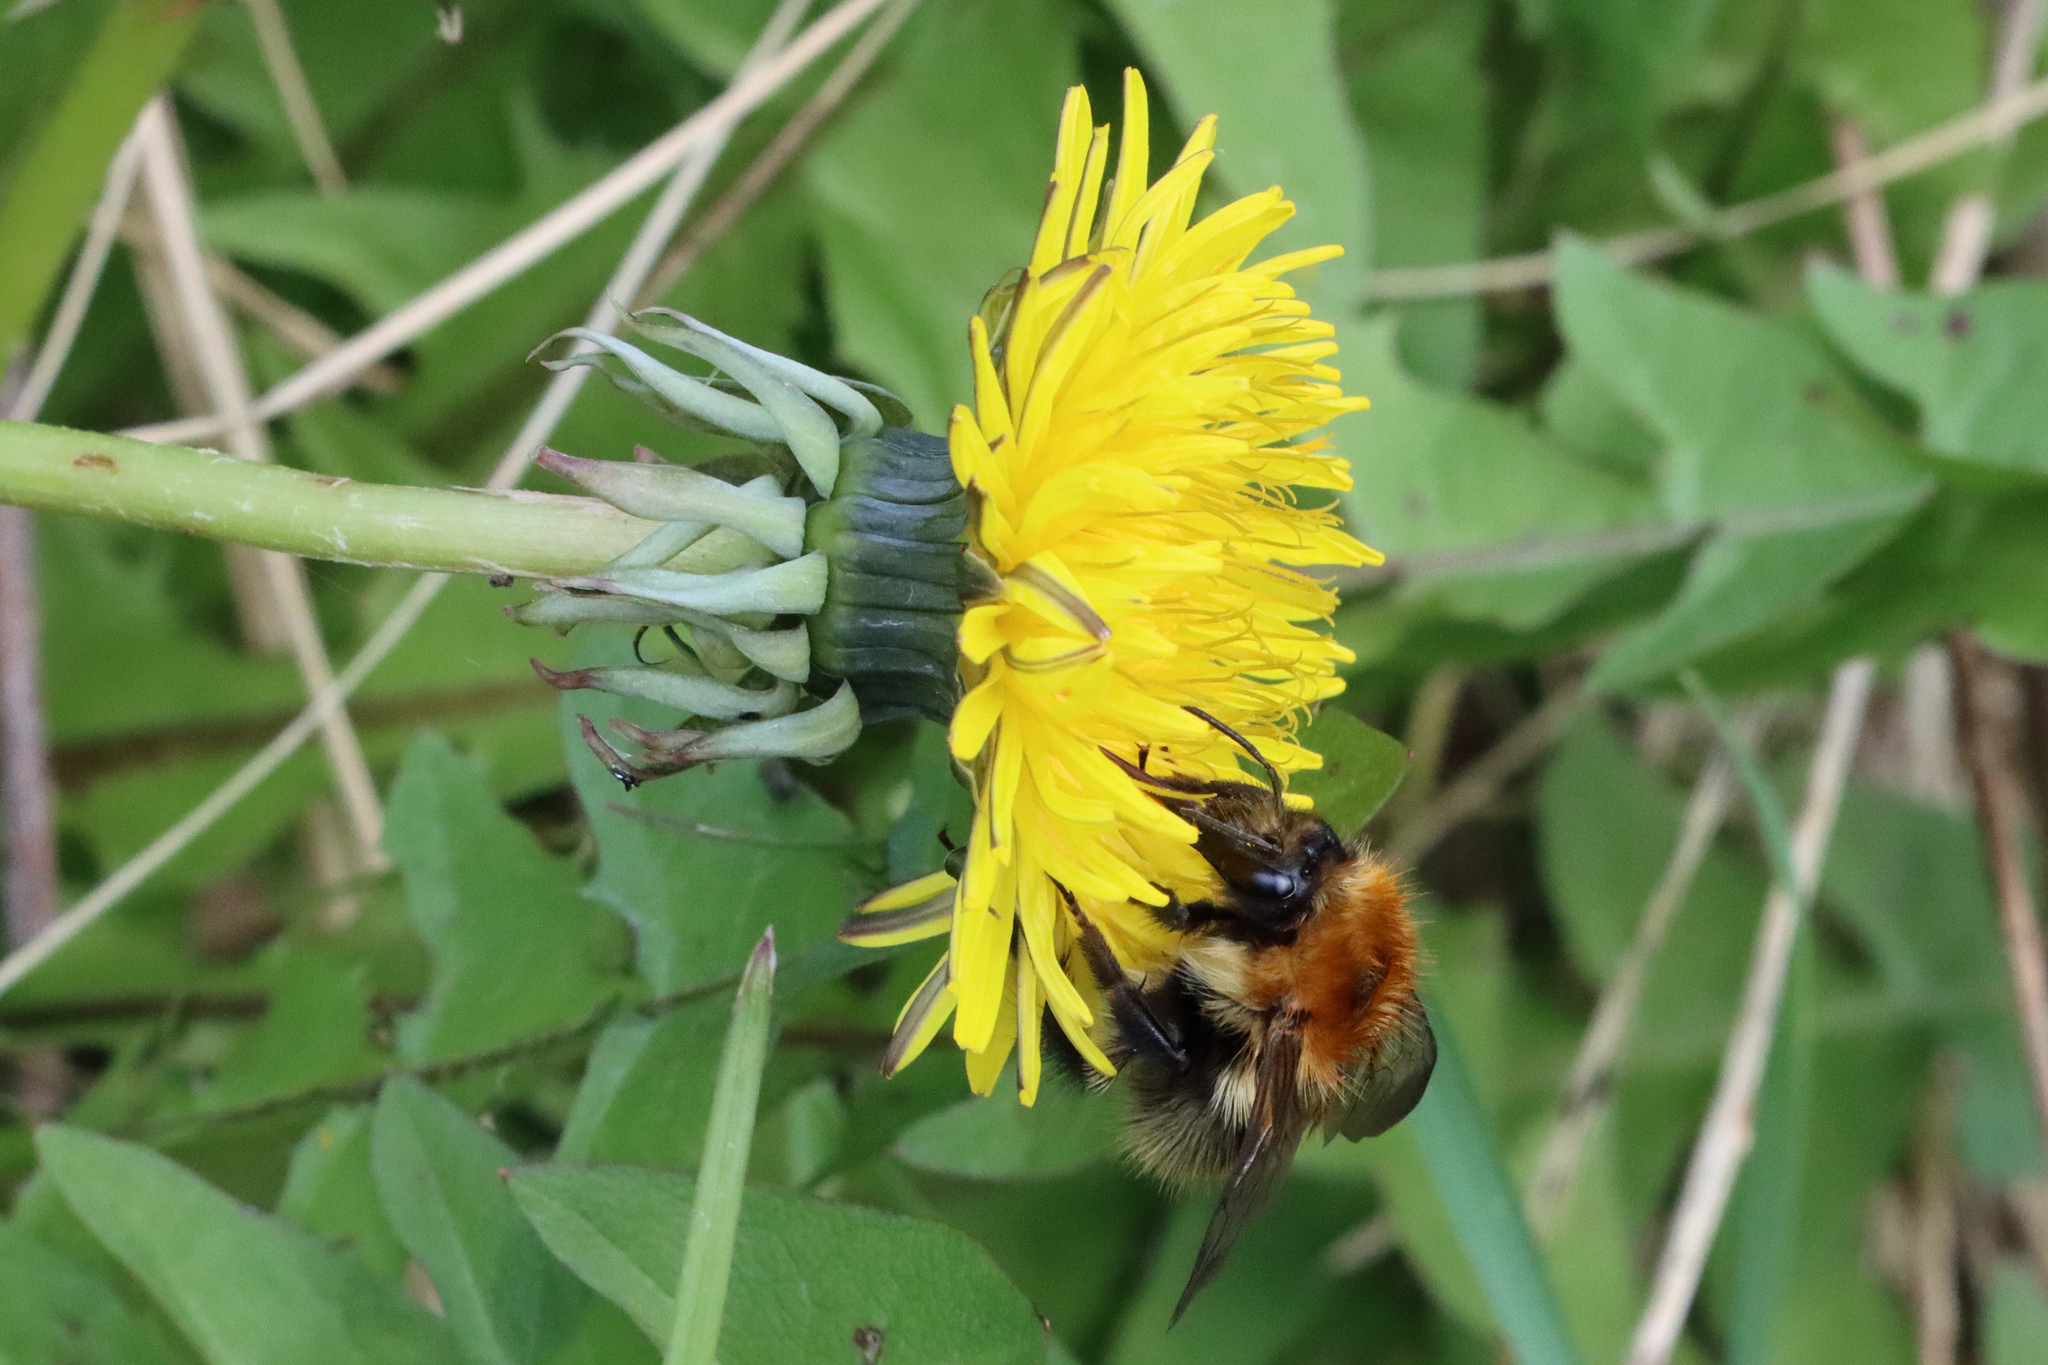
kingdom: Animalia
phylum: Arthropoda
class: Insecta
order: Hymenoptera
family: Apidae
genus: Bombus
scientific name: Bombus pascuorum
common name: Common carder bee
